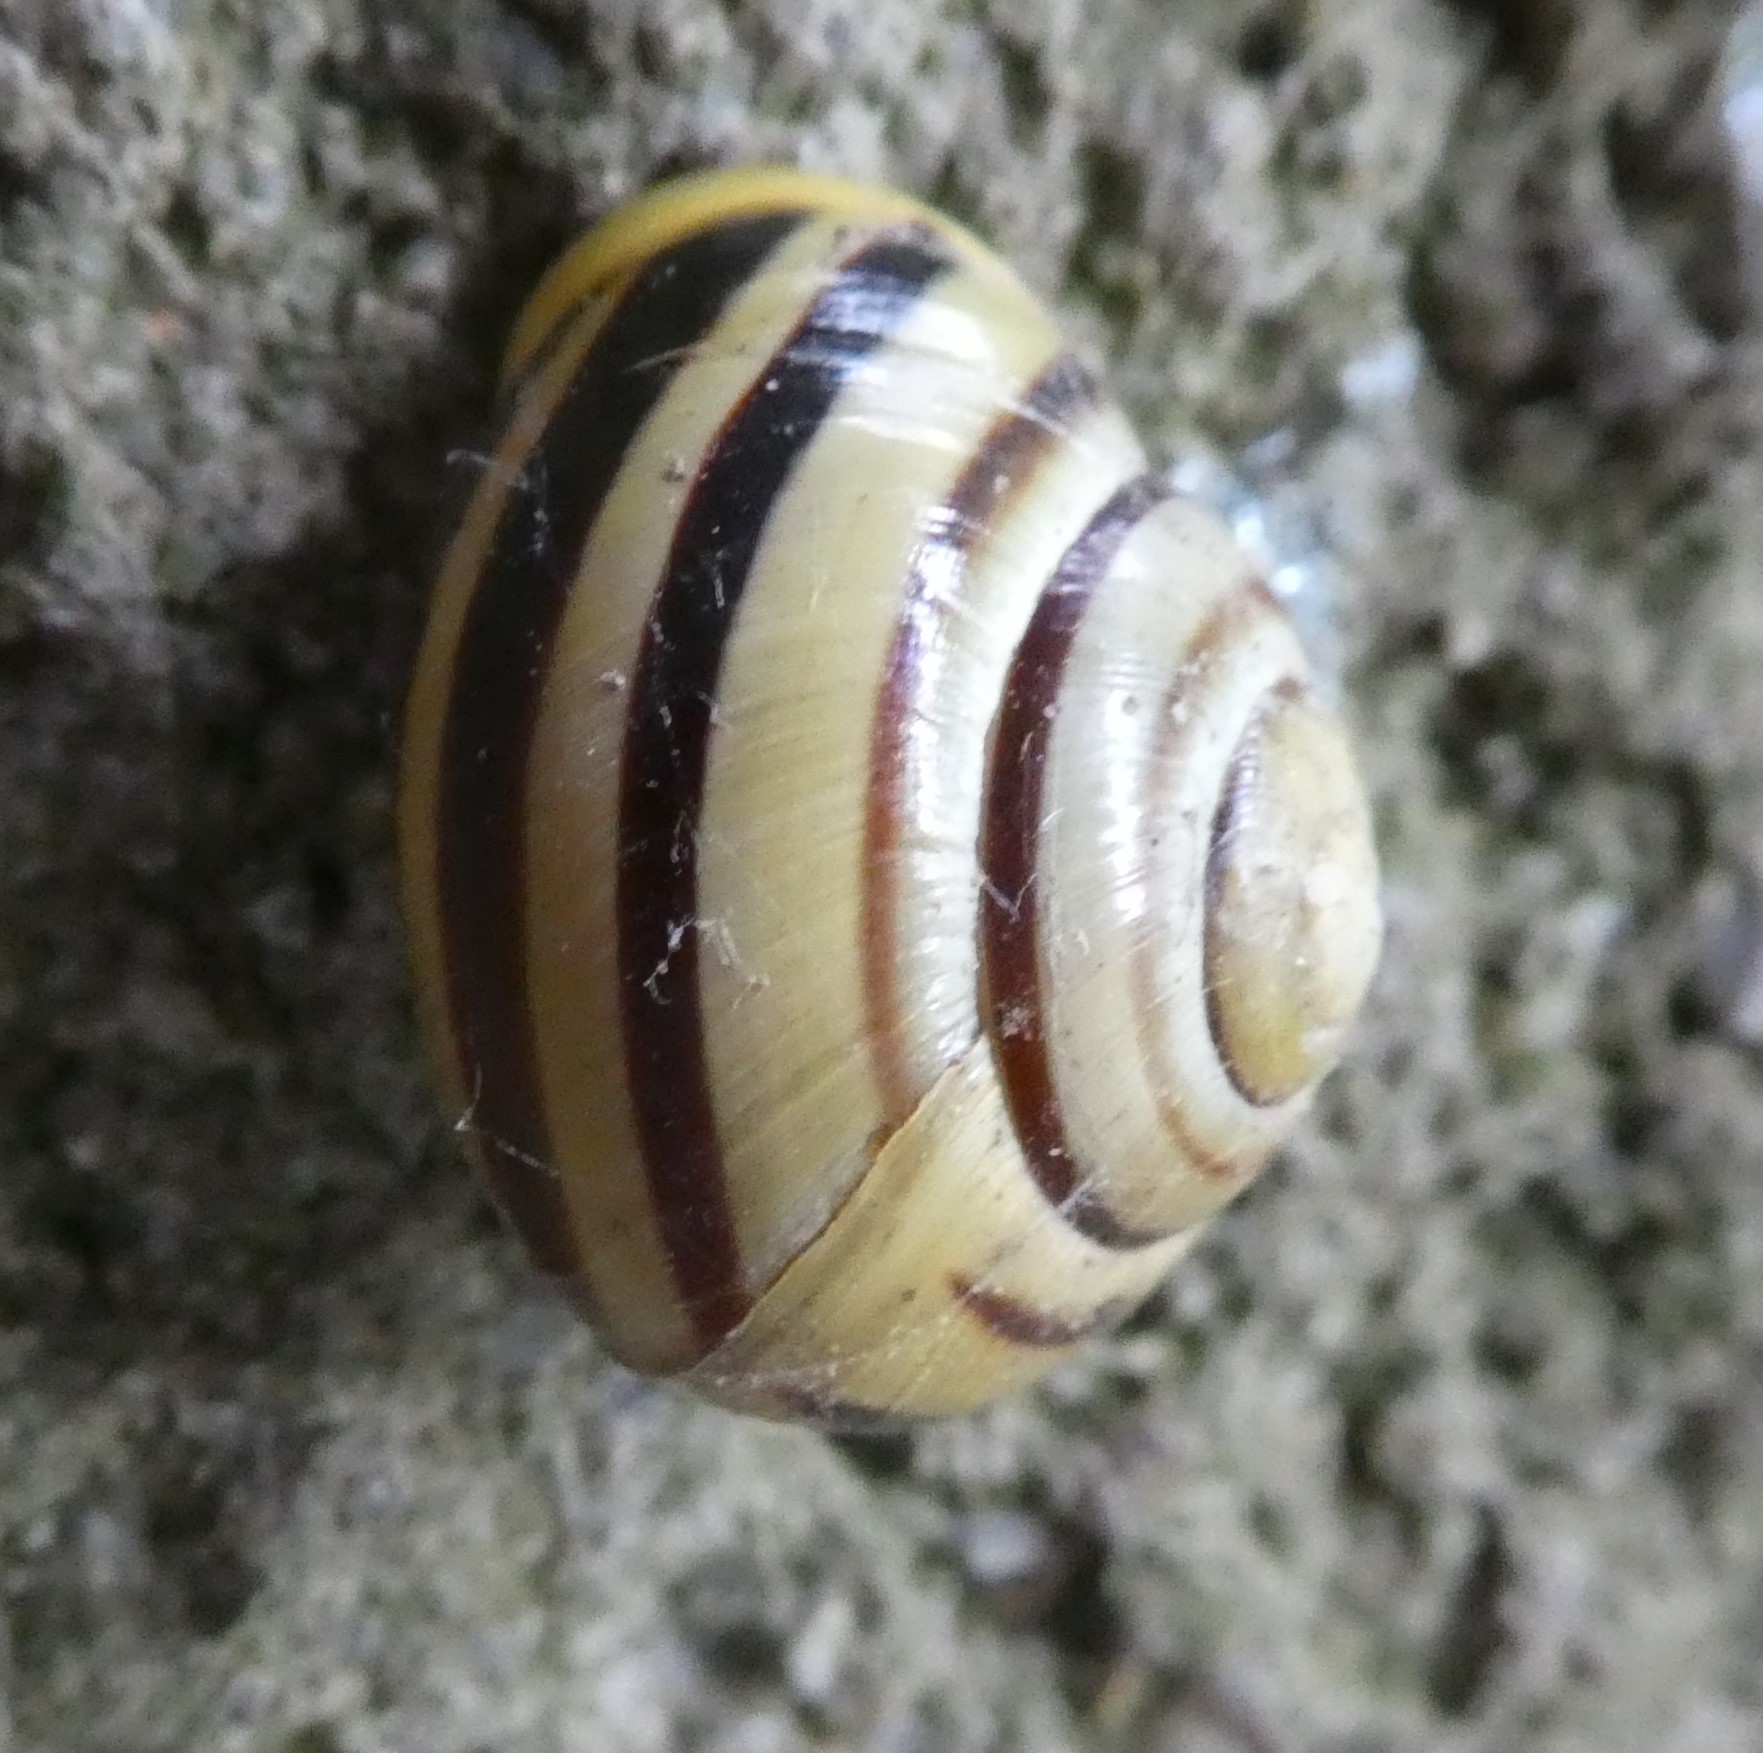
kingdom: Animalia
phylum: Mollusca
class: Gastropoda
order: Stylommatophora
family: Helicidae
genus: Cepaea
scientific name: Cepaea hortensis
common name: White-lip gardensnail
